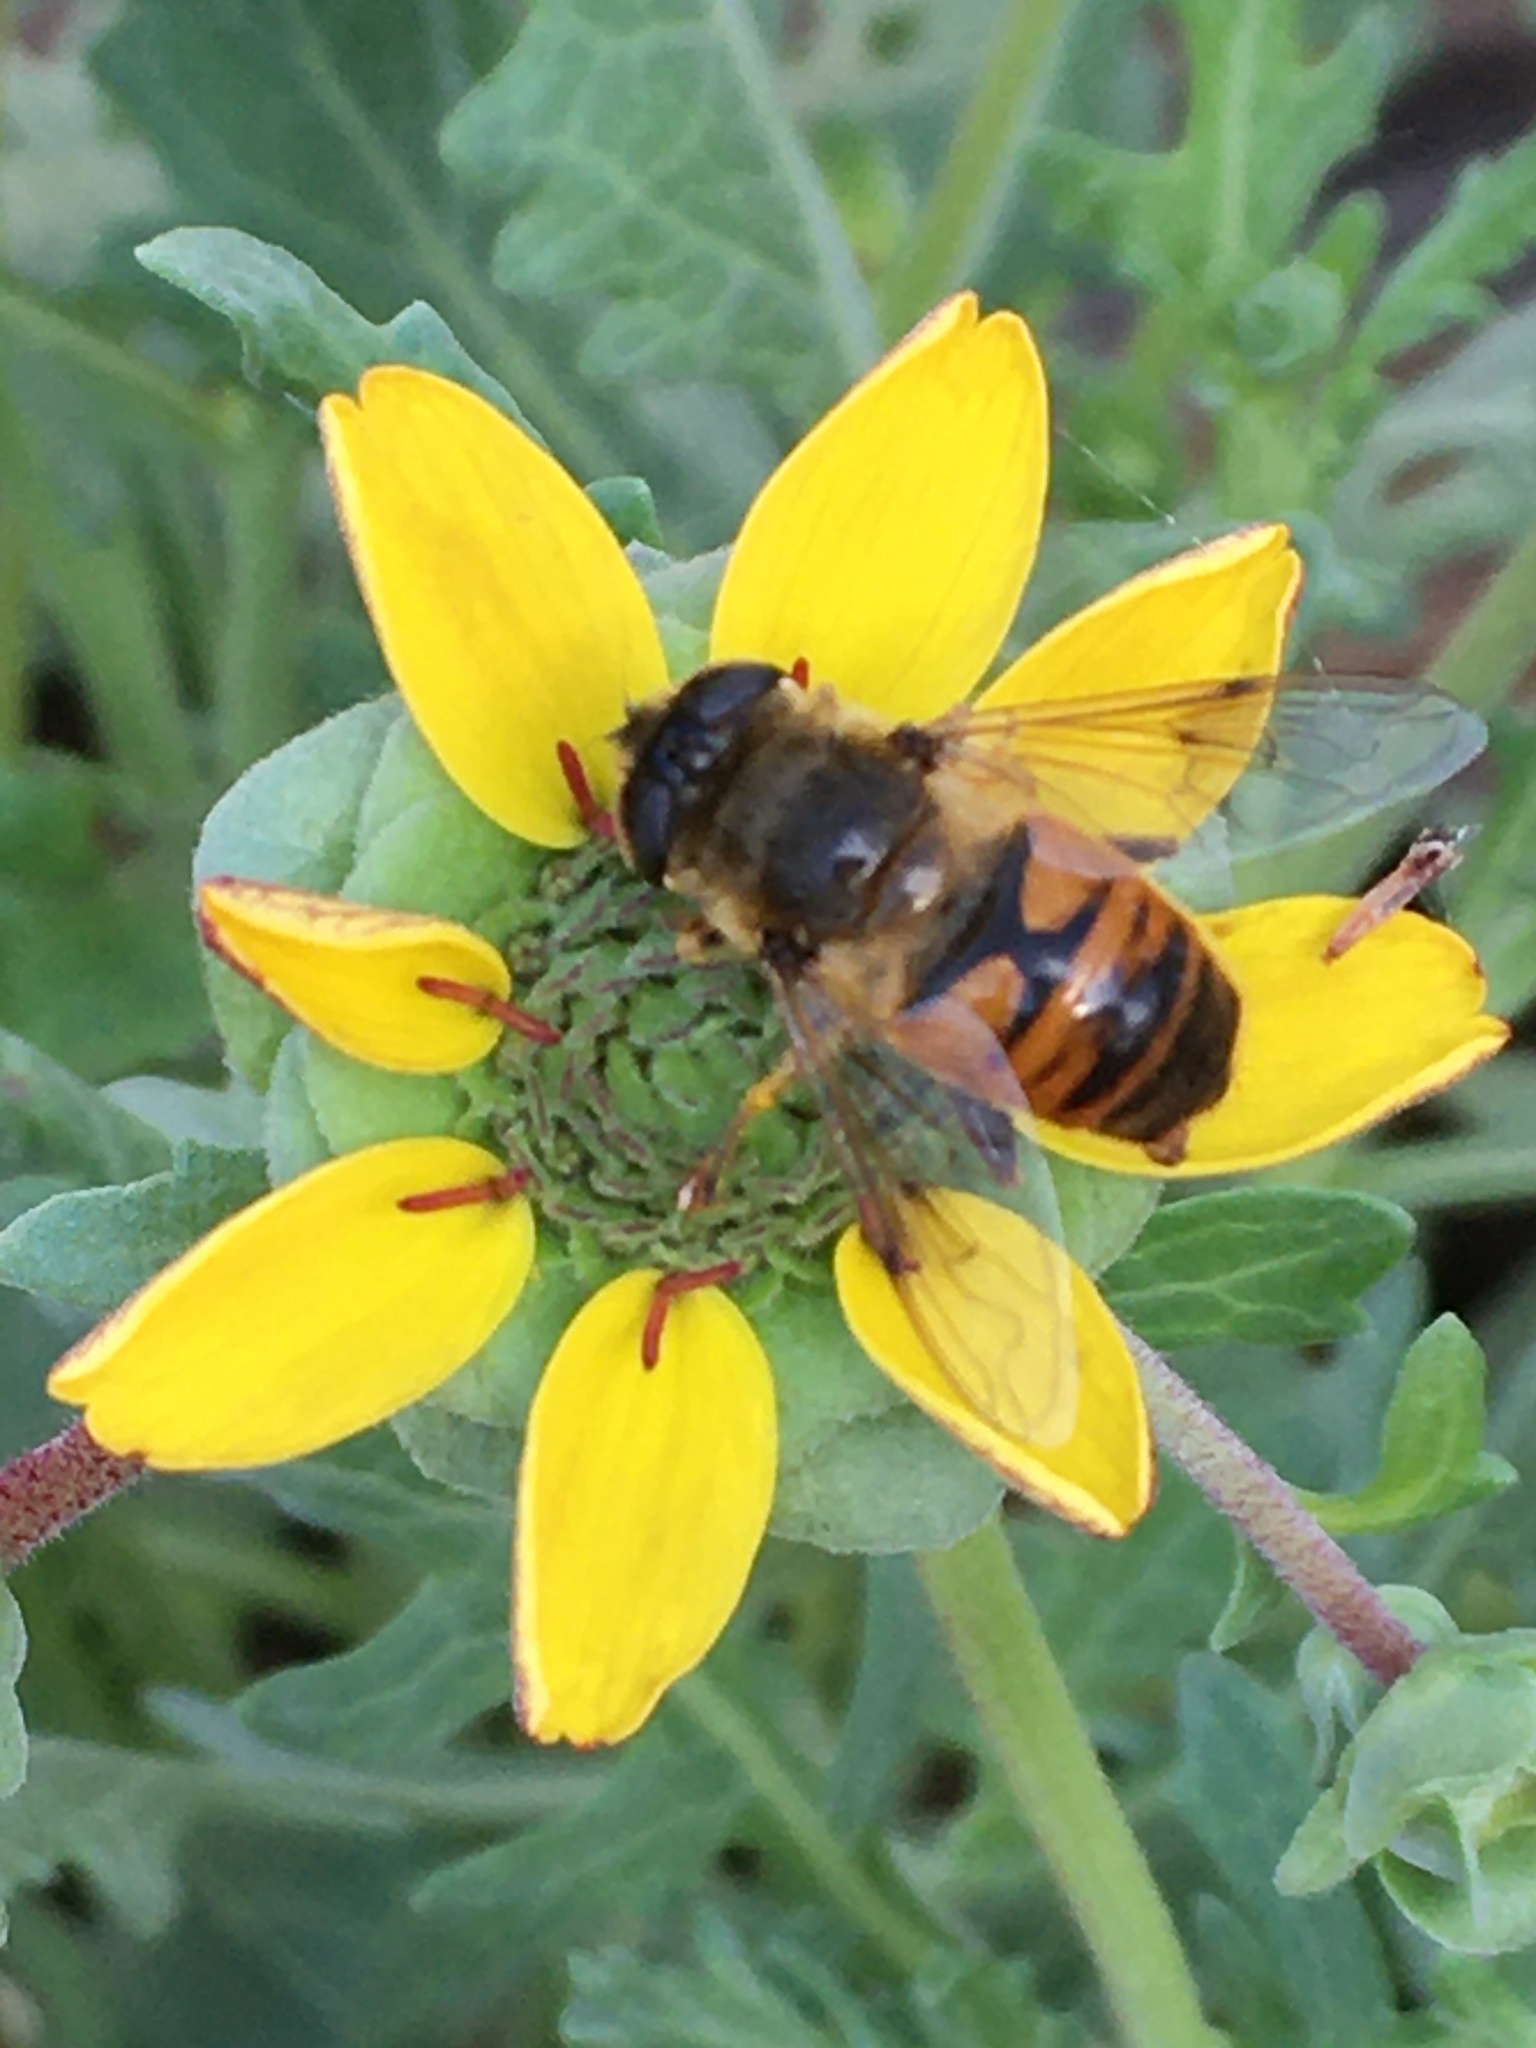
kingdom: Animalia
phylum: Arthropoda
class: Insecta
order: Diptera
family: Syrphidae
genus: Eristalis
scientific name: Eristalis tenax
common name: Drone fly
